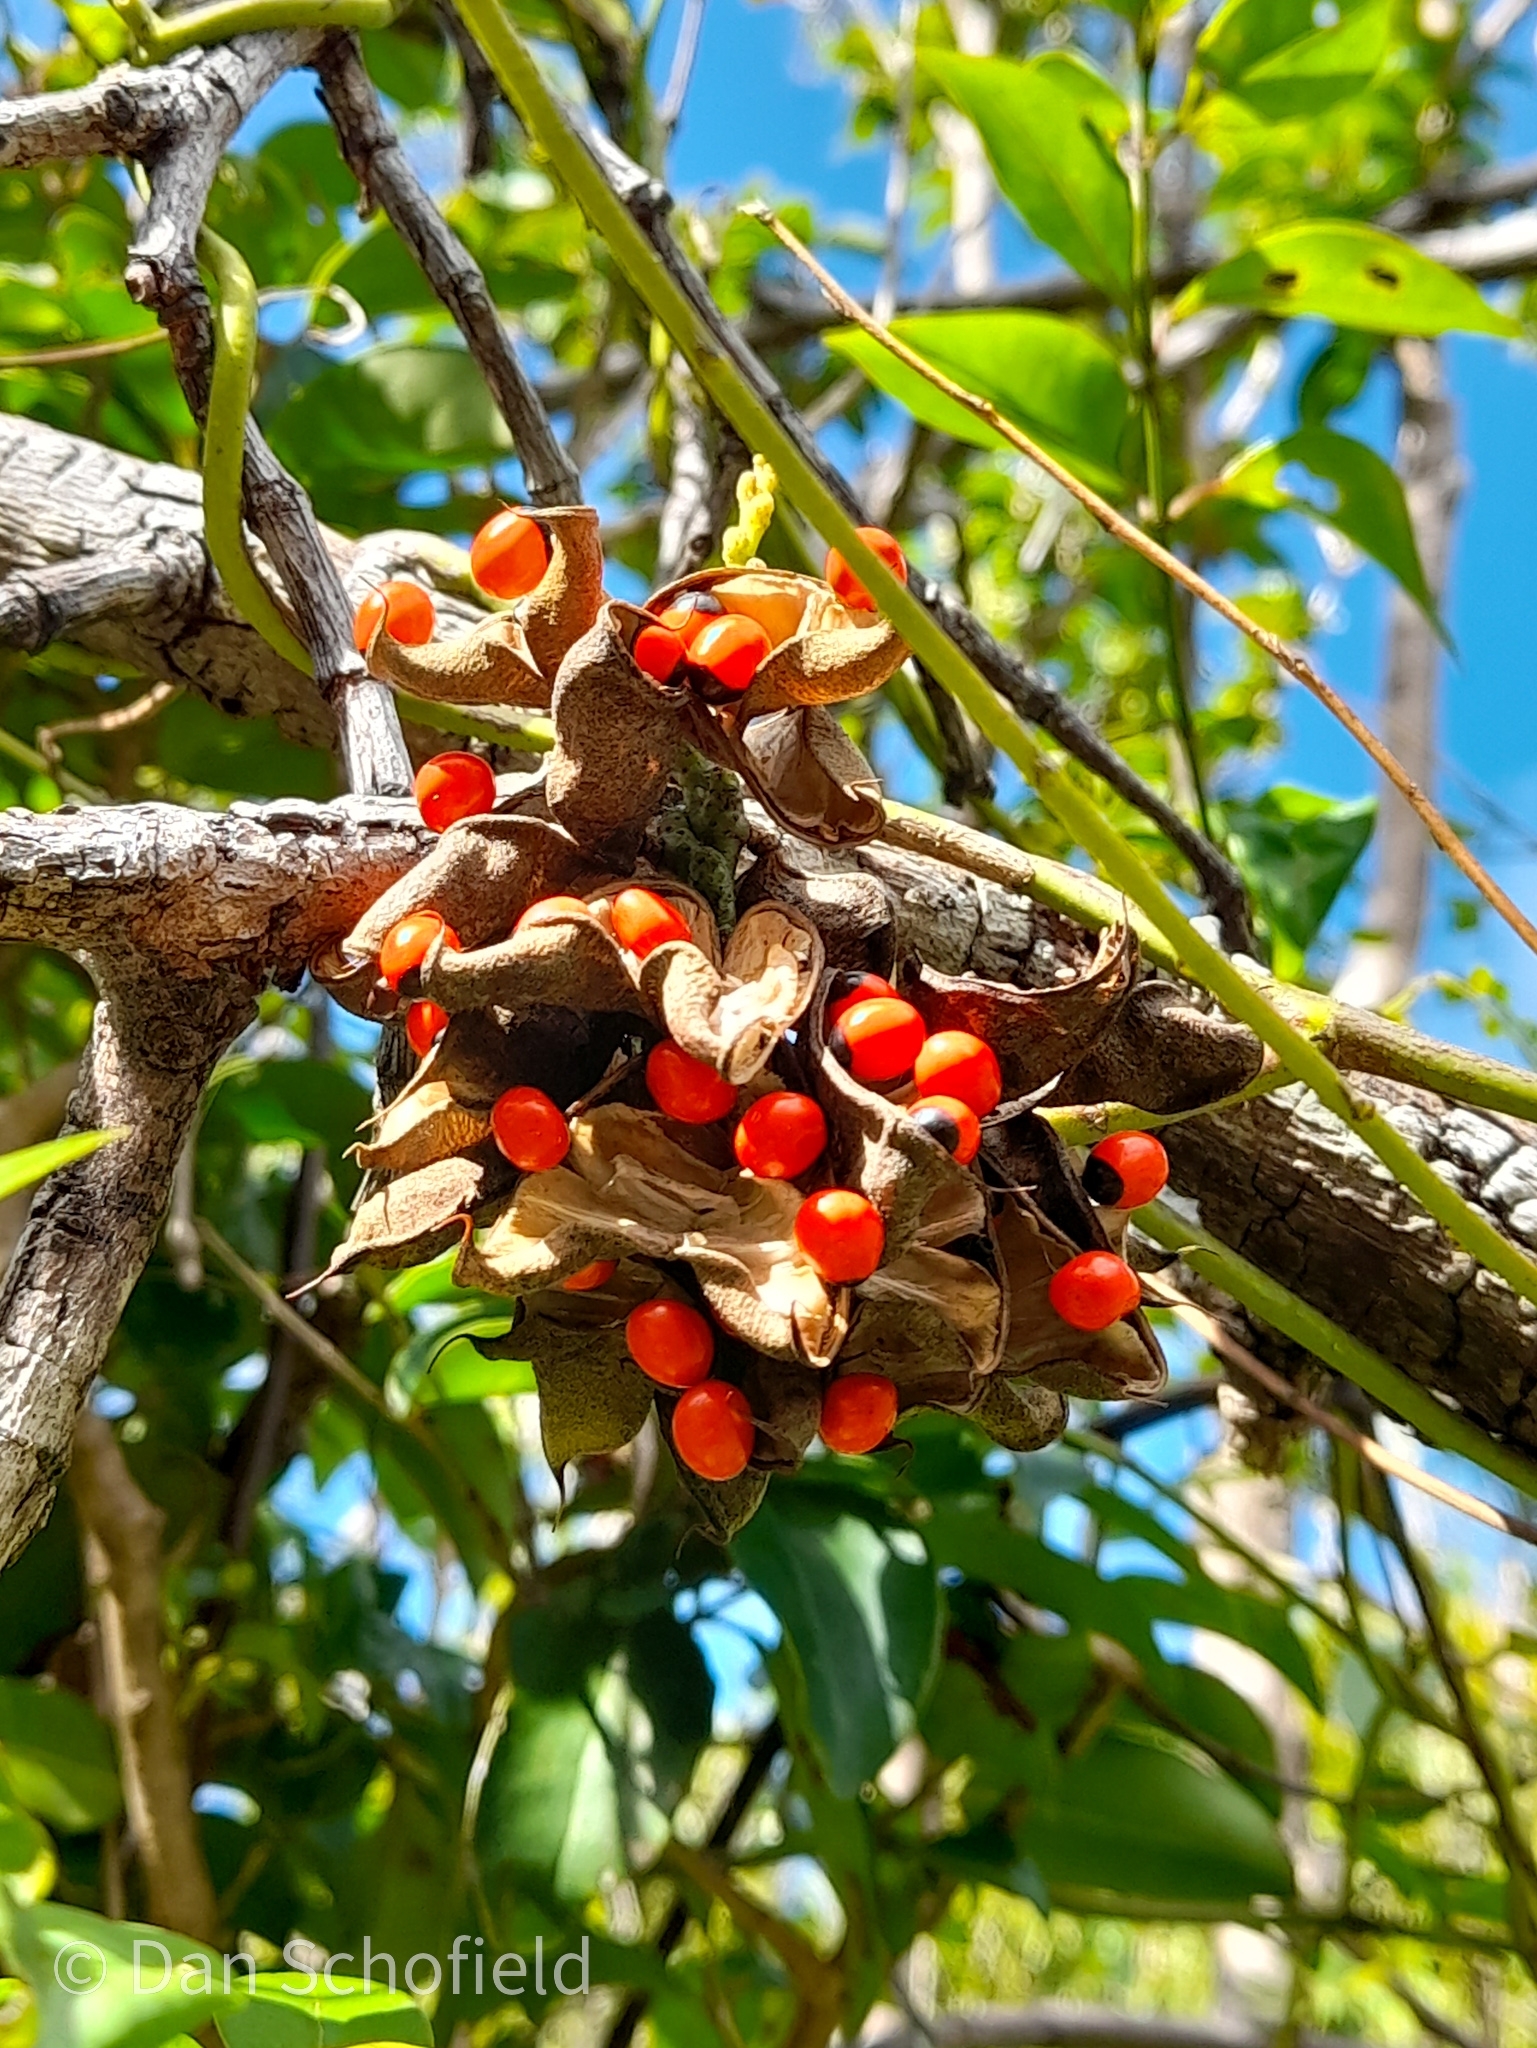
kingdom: Plantae
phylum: Tracheophyta
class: Magnoliopsida
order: Fabales
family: Fabaceae
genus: Abrus
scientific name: Abrus precatorius
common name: Rosarypea
